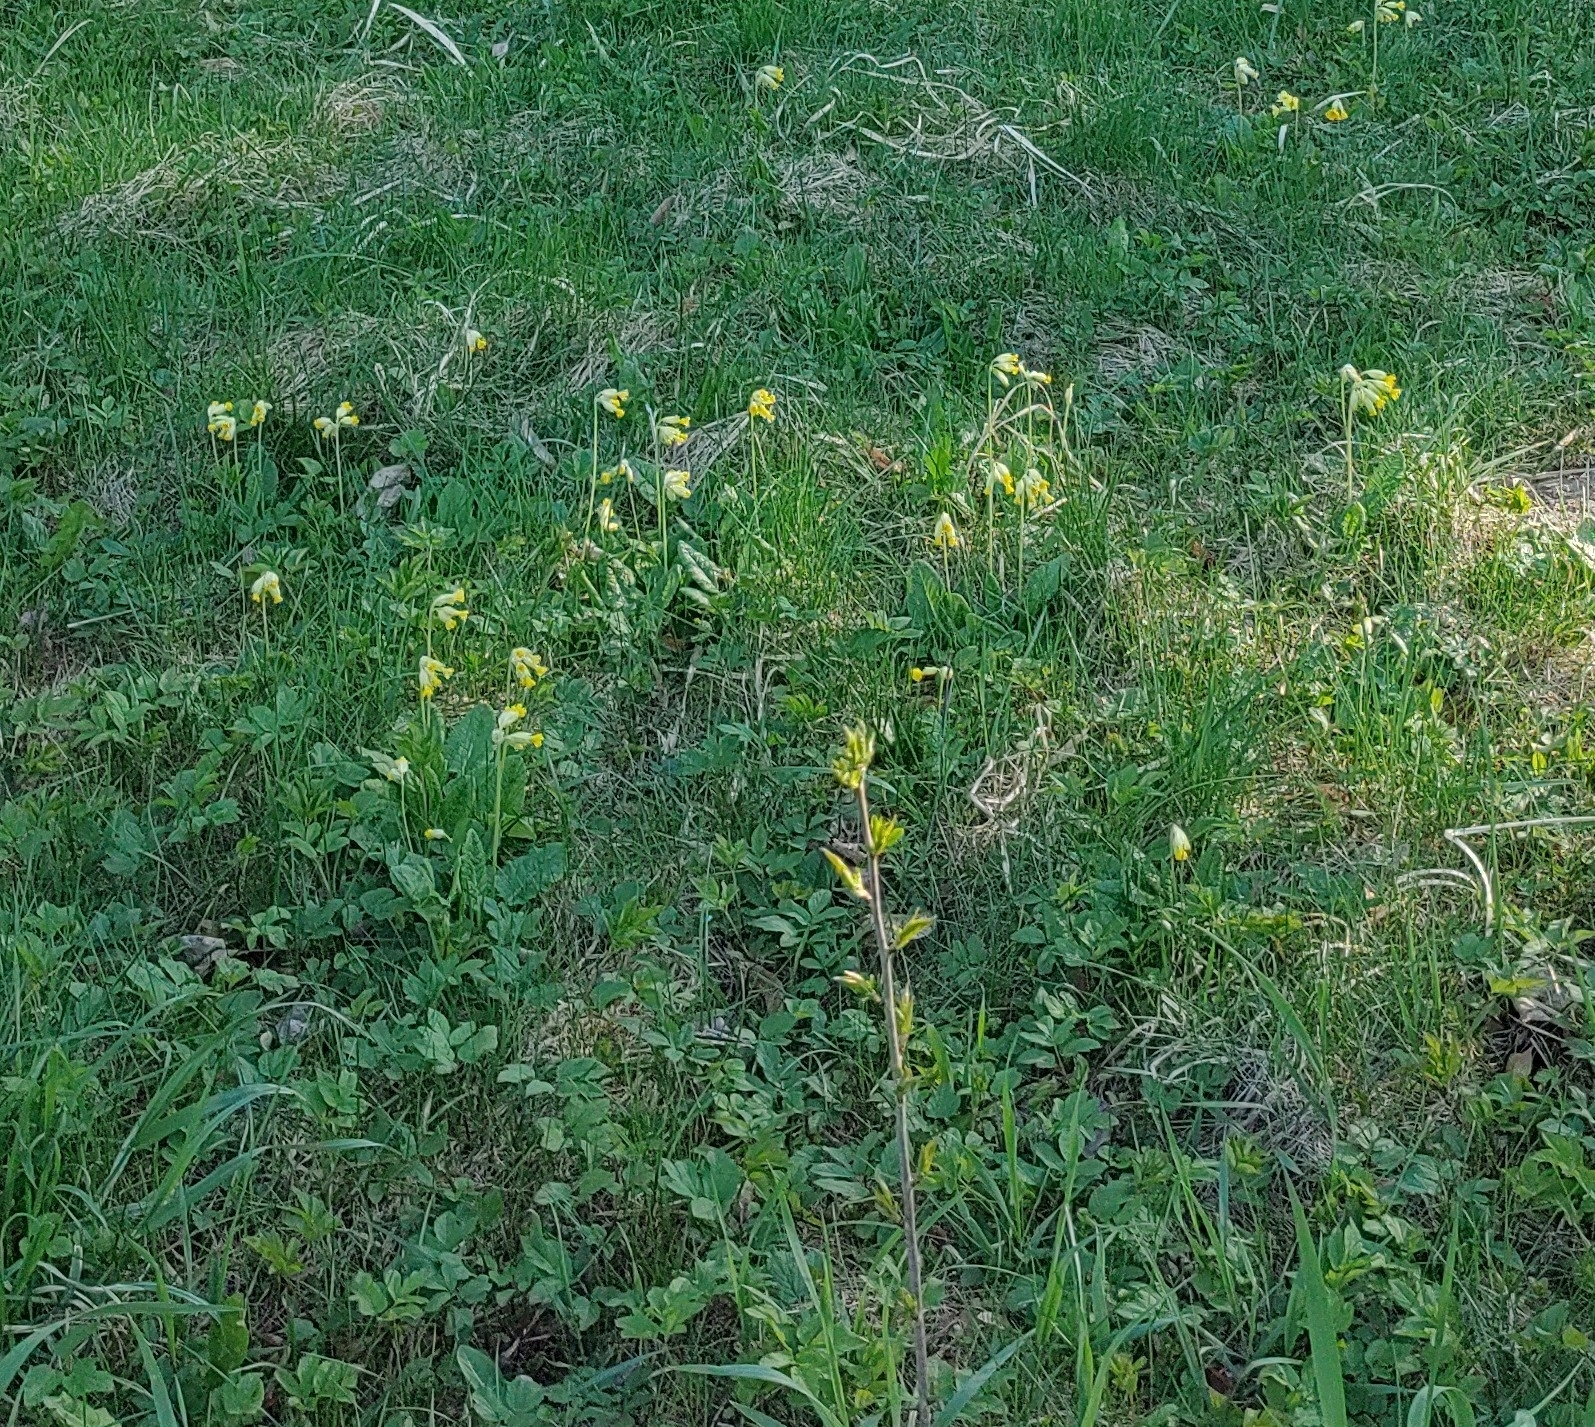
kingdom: Plantae
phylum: Tracheophyta
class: Magnoliopsida
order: Ericales
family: Primulaceae
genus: Primula
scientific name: Primula veris
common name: Cowslip
